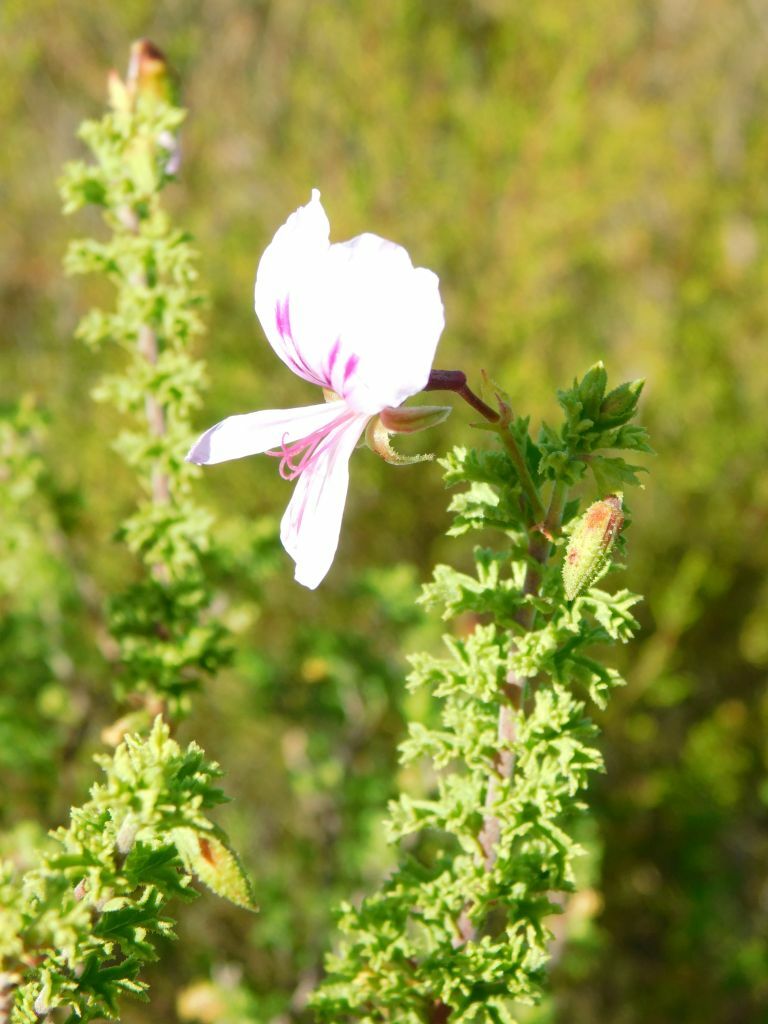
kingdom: Plantae
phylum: Tracheophyta
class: Magnoliopsida
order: Geraniales
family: Geraniaceae
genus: Pelargonium
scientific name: Pelargonium hermaniifolium
